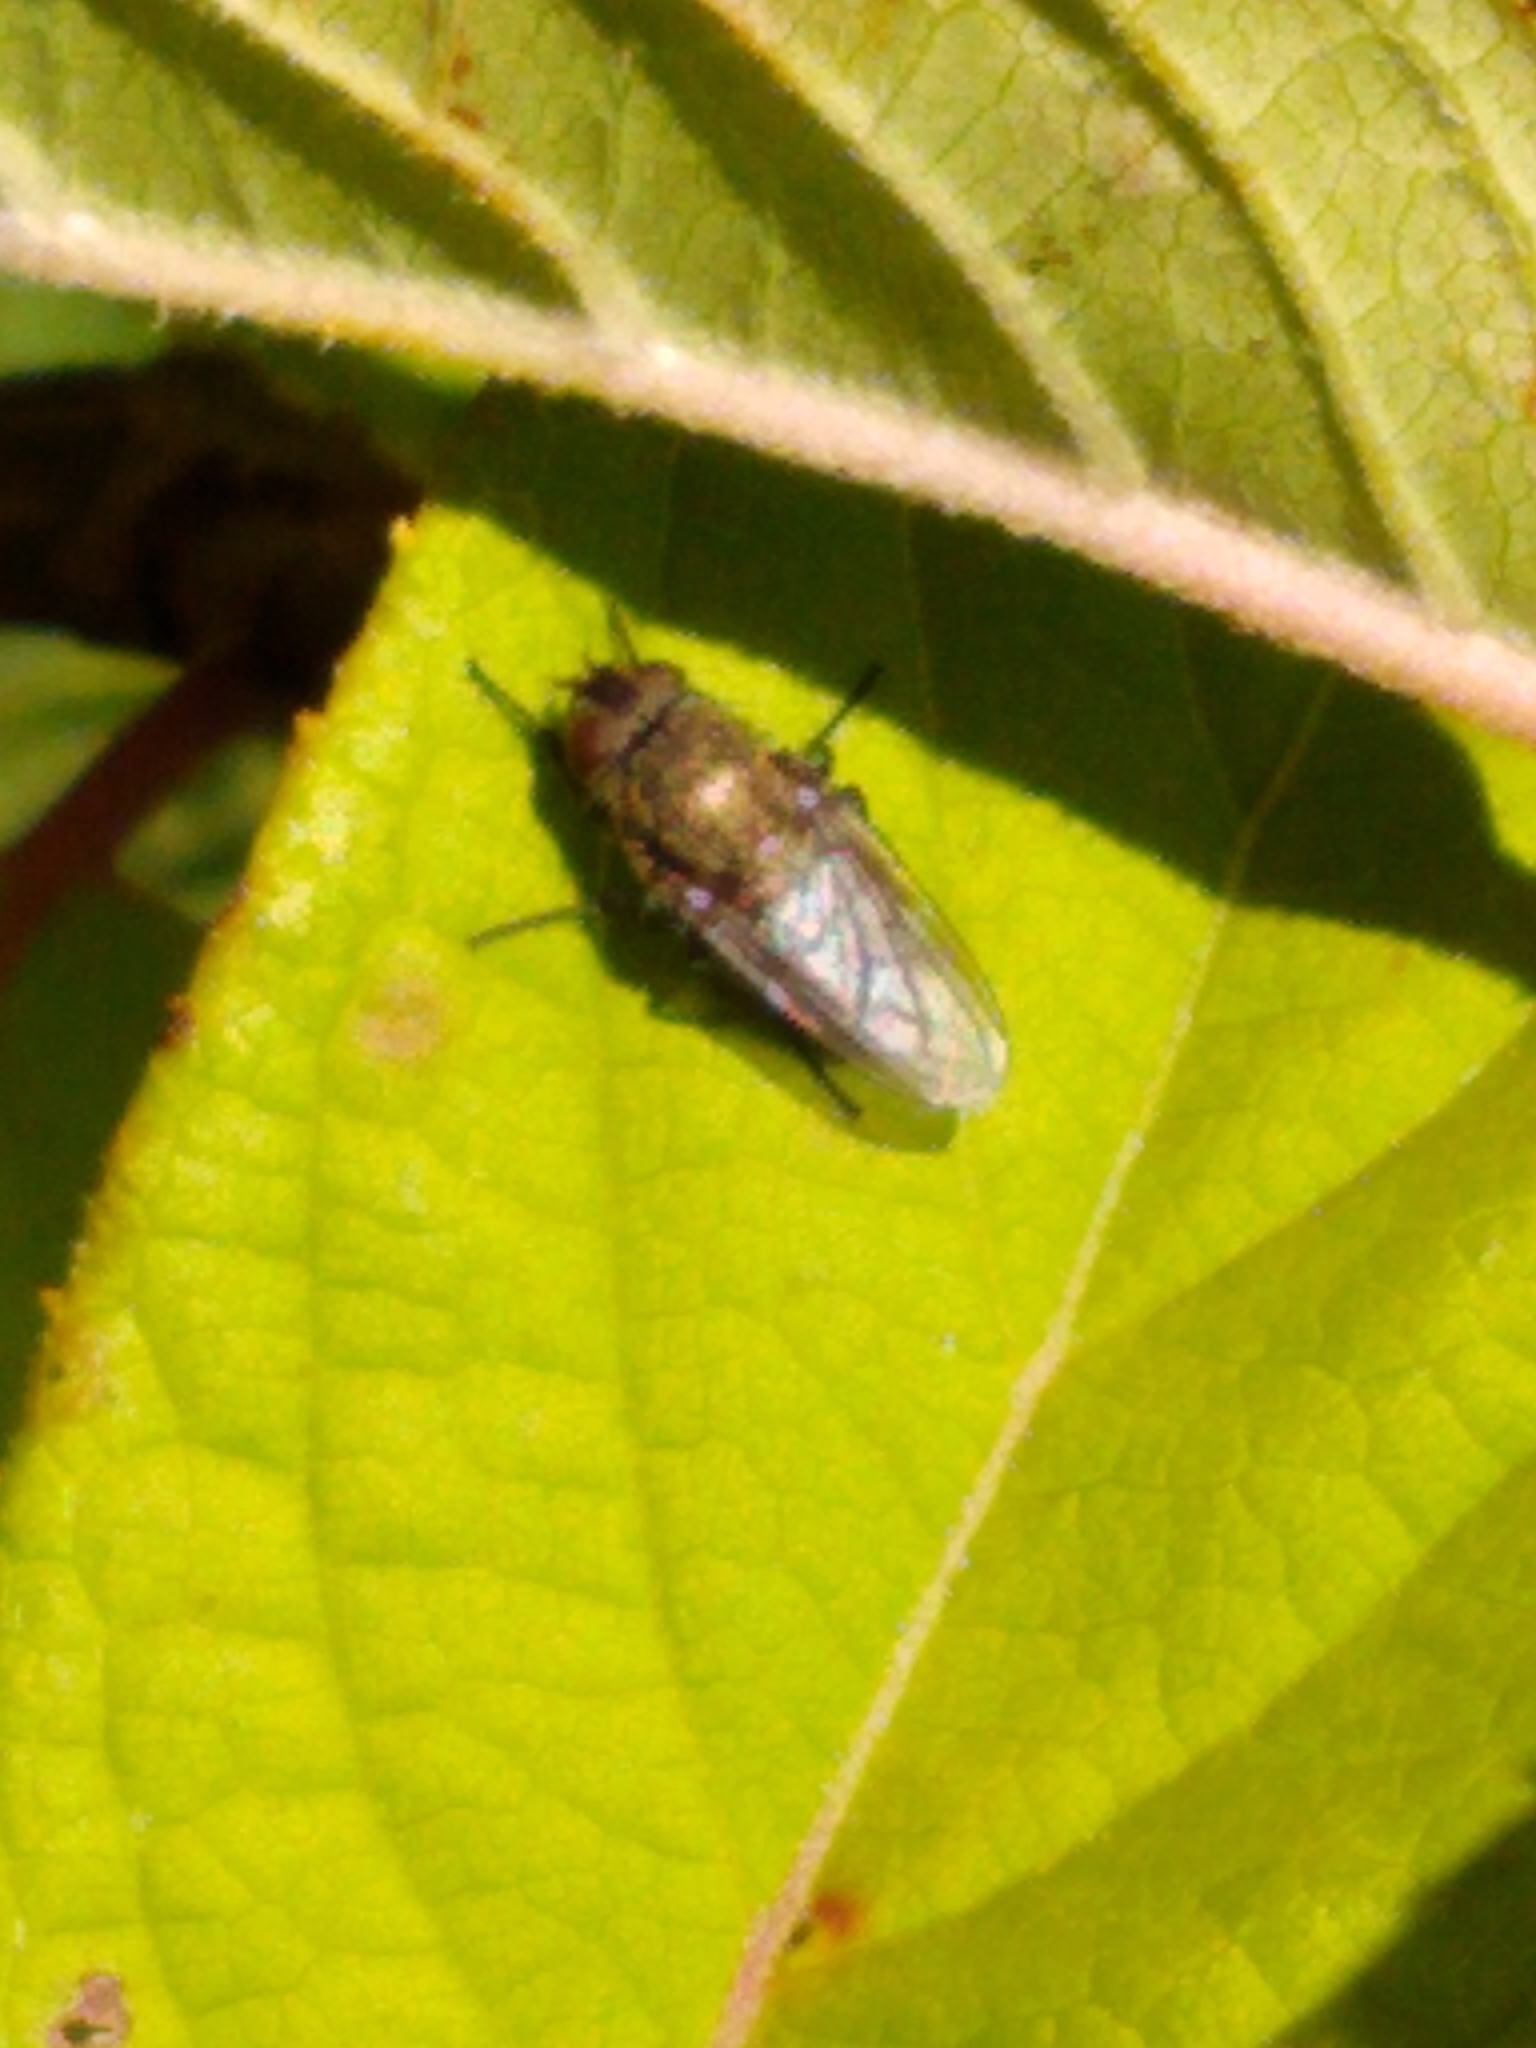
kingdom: Animalia
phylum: Arthropoda
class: Insecta
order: Diptera
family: Polleniidae
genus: Pollenia
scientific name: Pollenia
